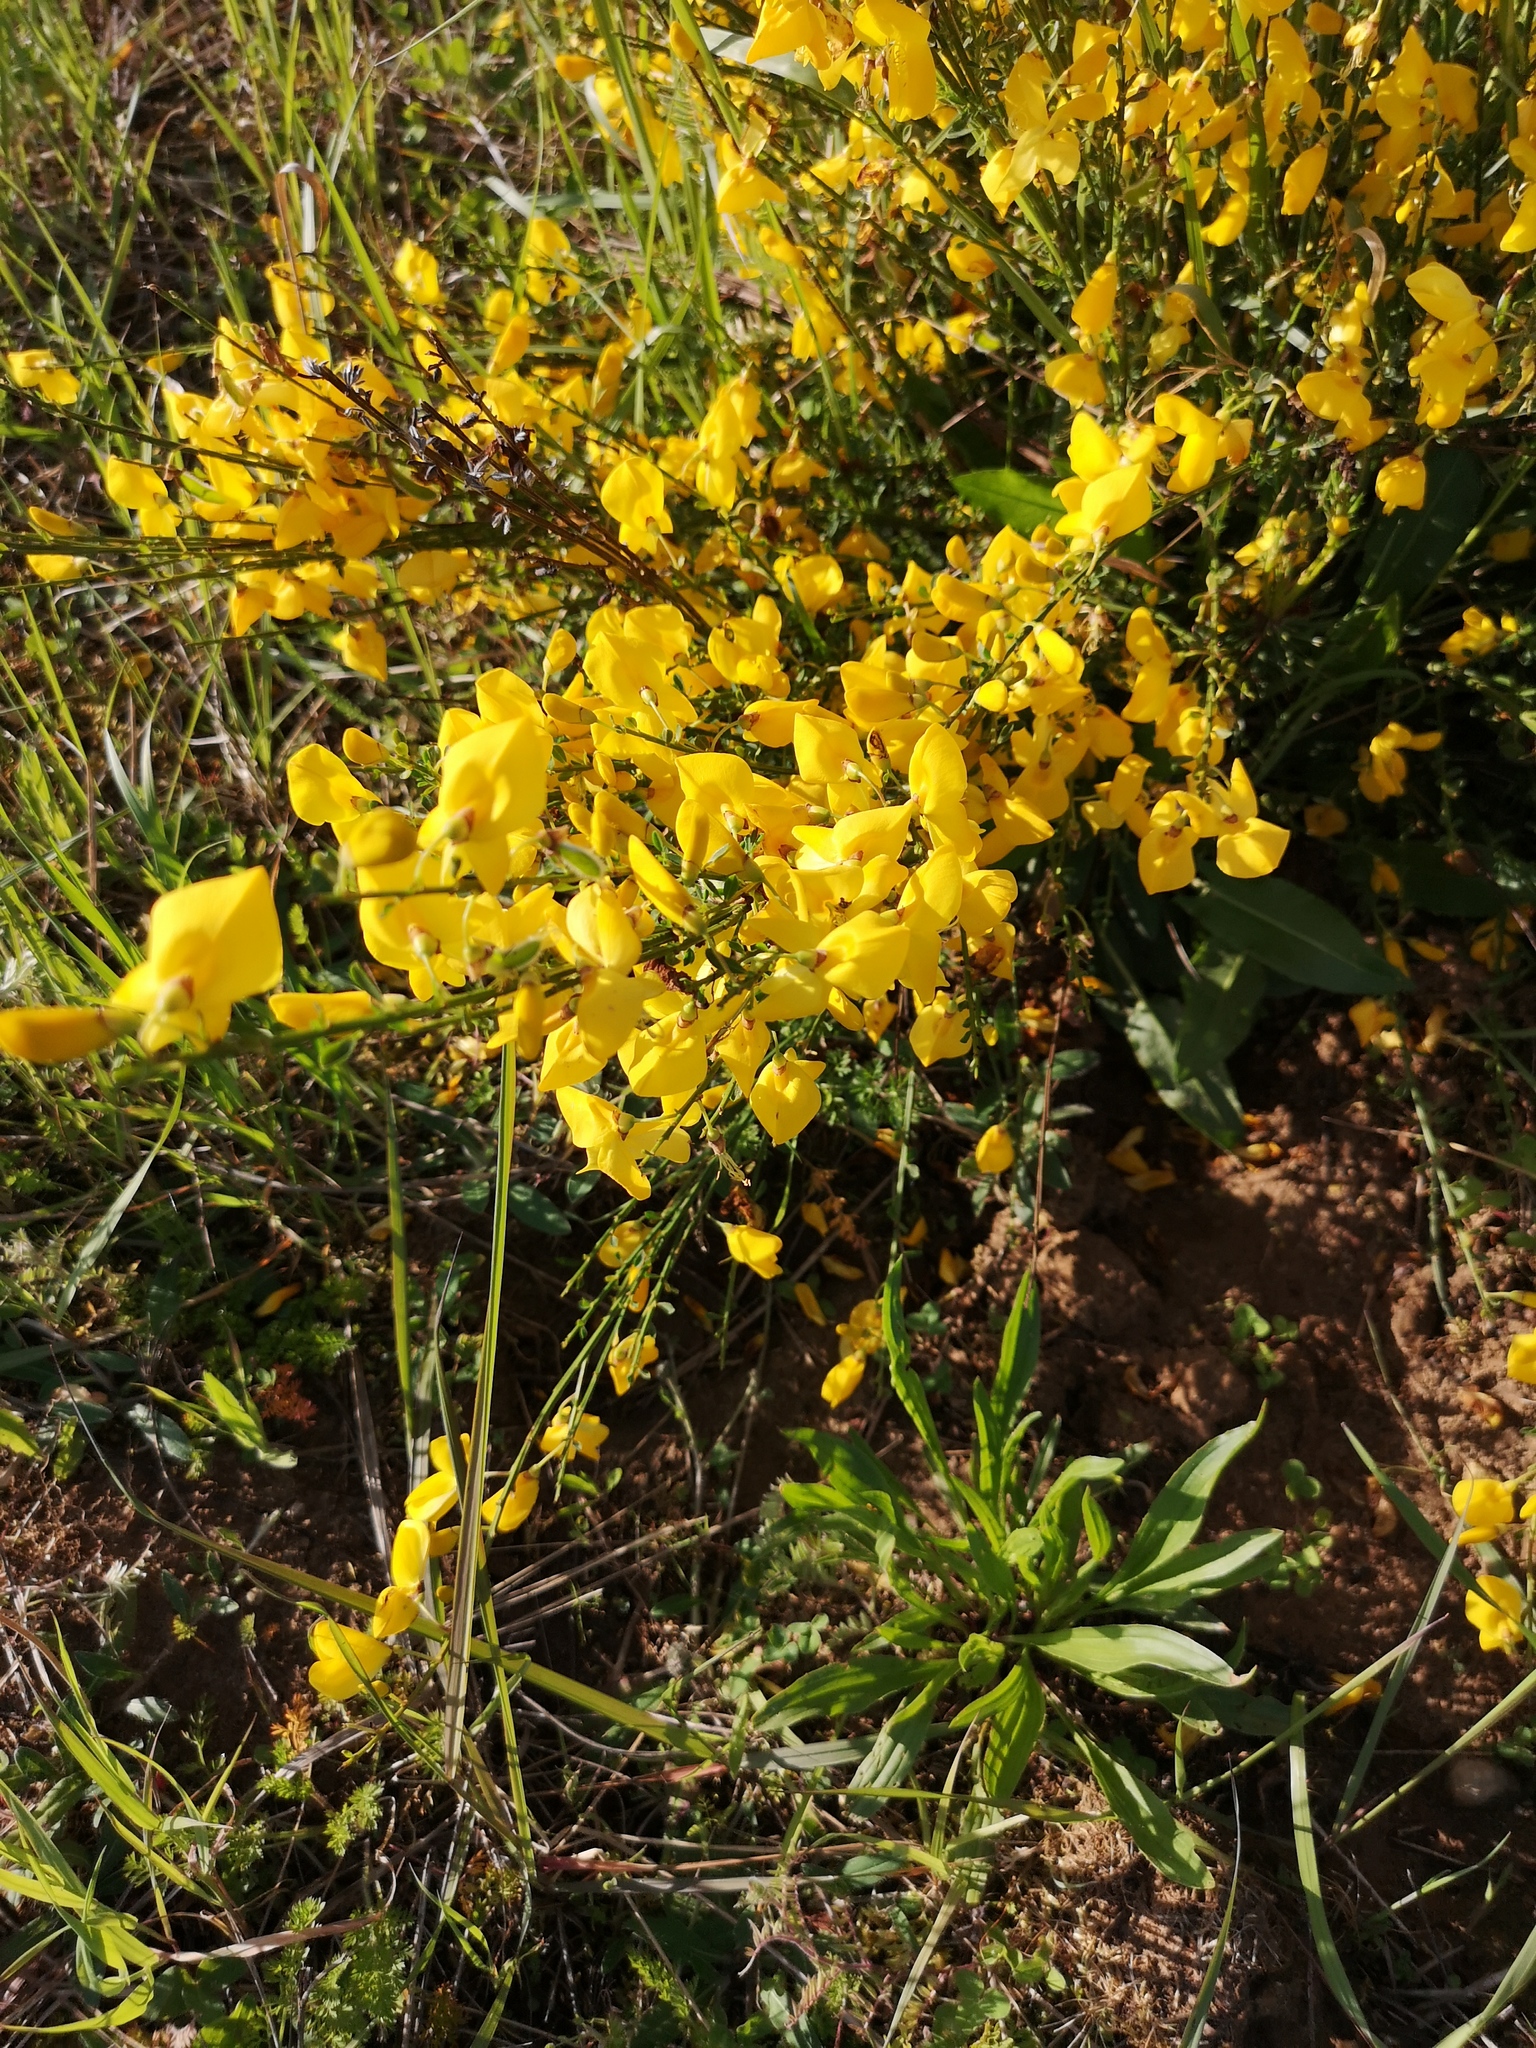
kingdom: Plantae
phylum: Tracheophyta
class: Magnoliopsida
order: Fabales
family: Fabaceae
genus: Cytisus
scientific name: Cytisus scoparius
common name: Scotch broom
